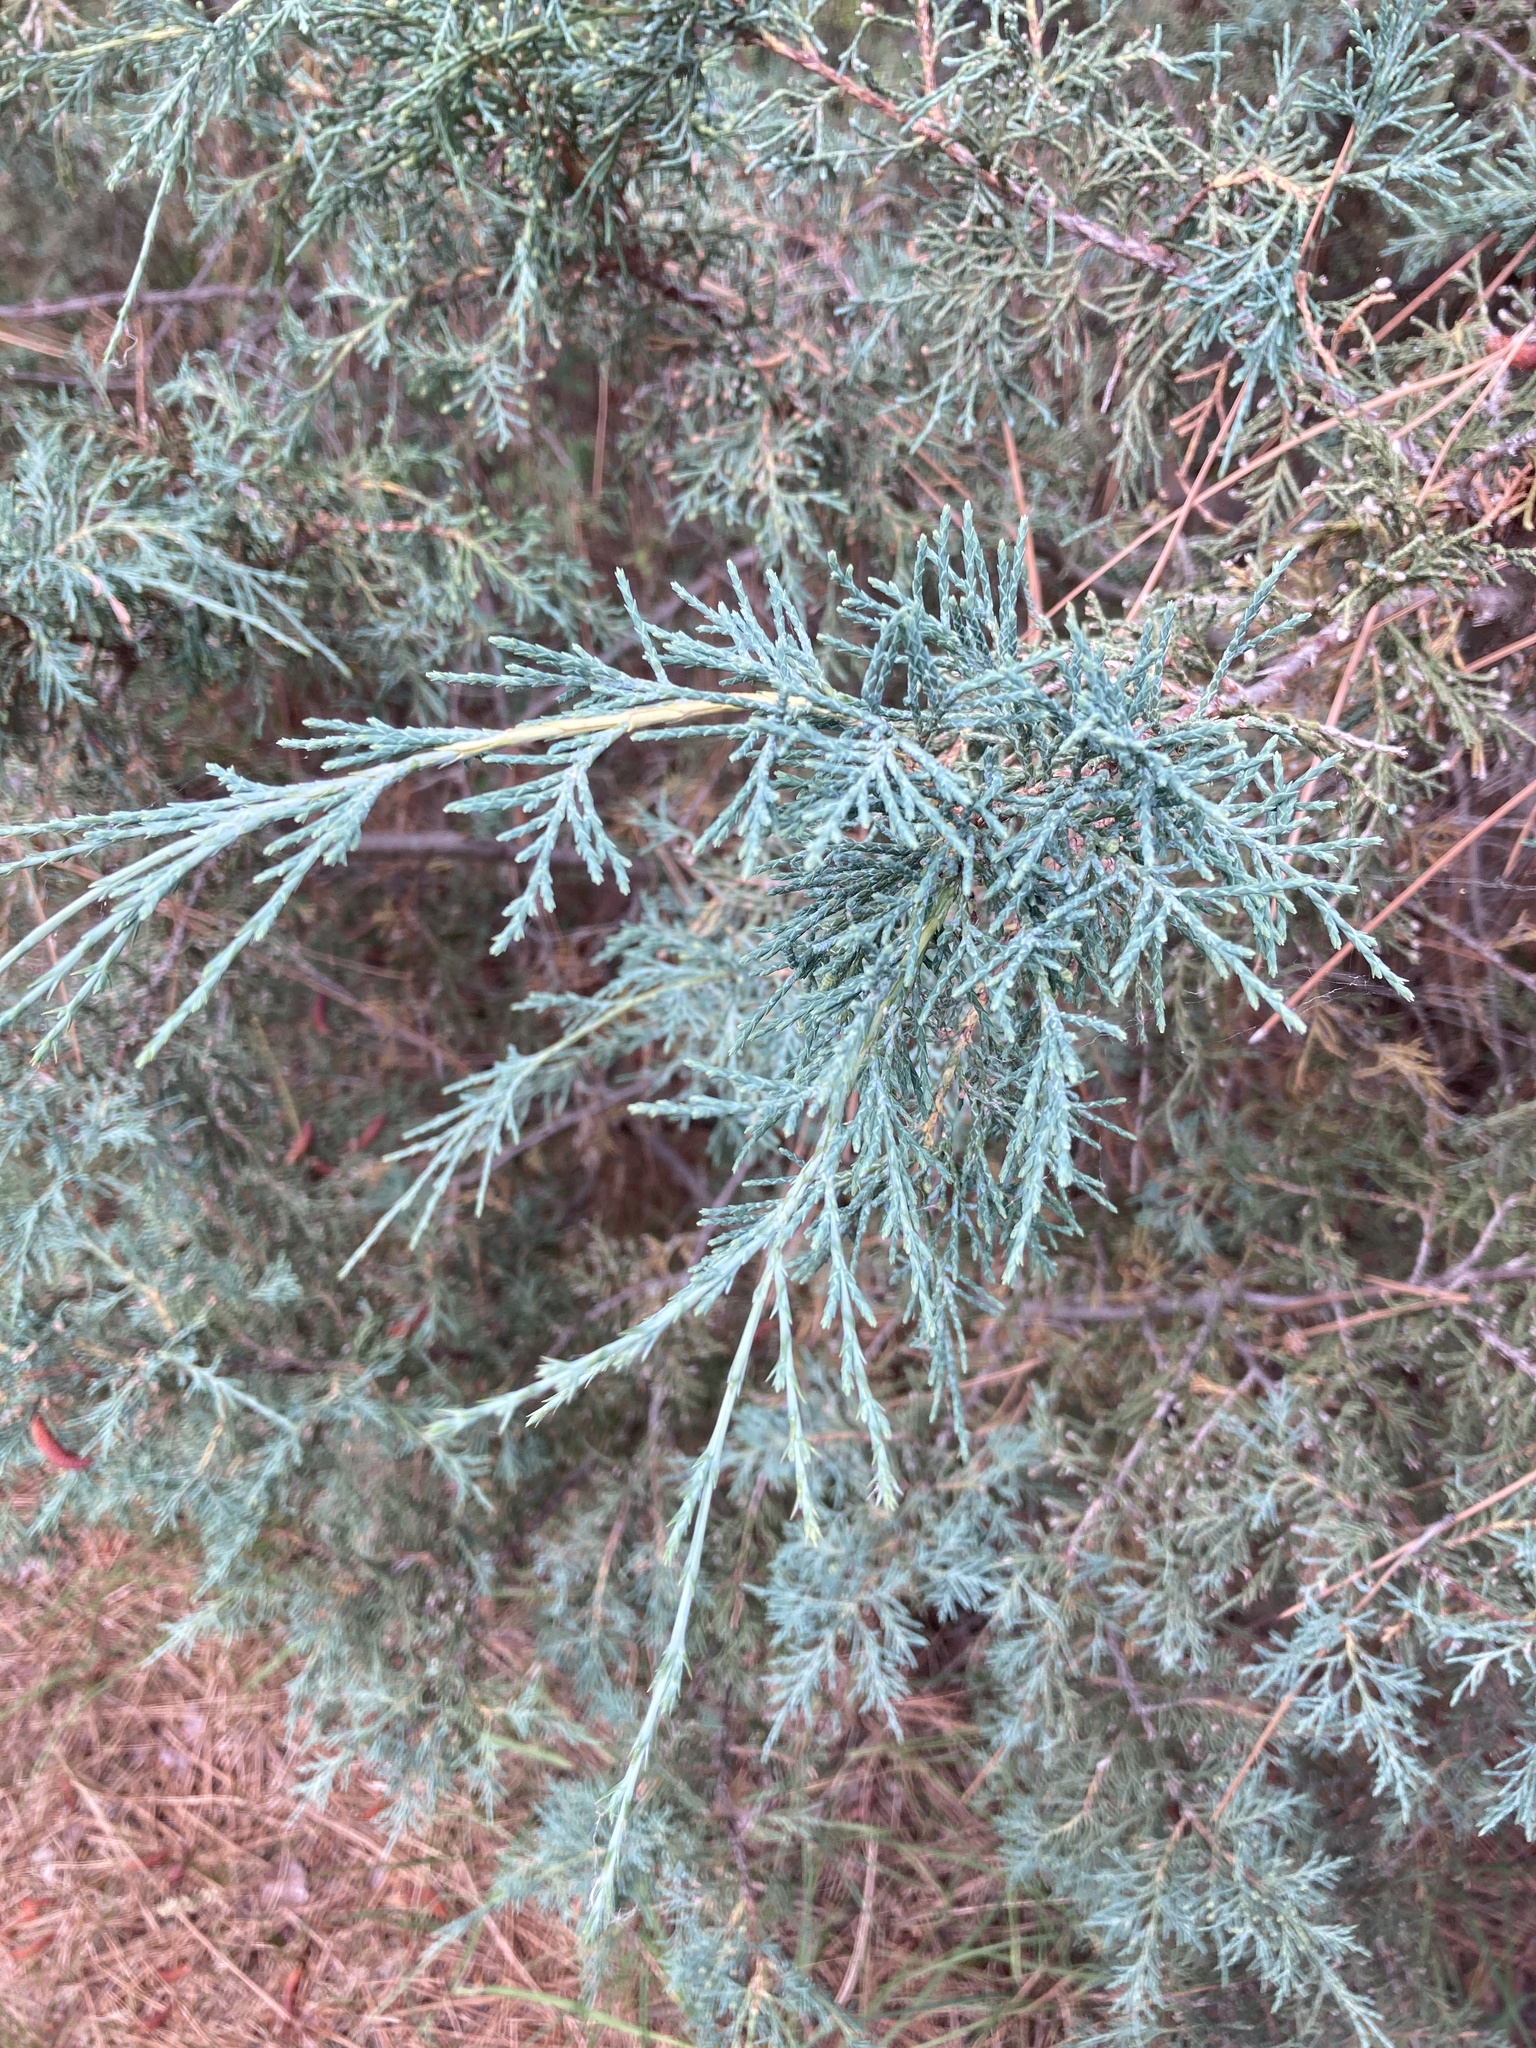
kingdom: Plantae
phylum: Tracheophyta
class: Pinopsida
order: Pinales
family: Cupressaceae
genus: Juniperus
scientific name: Juniperus scopulorum
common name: Rocky mountain juniper
